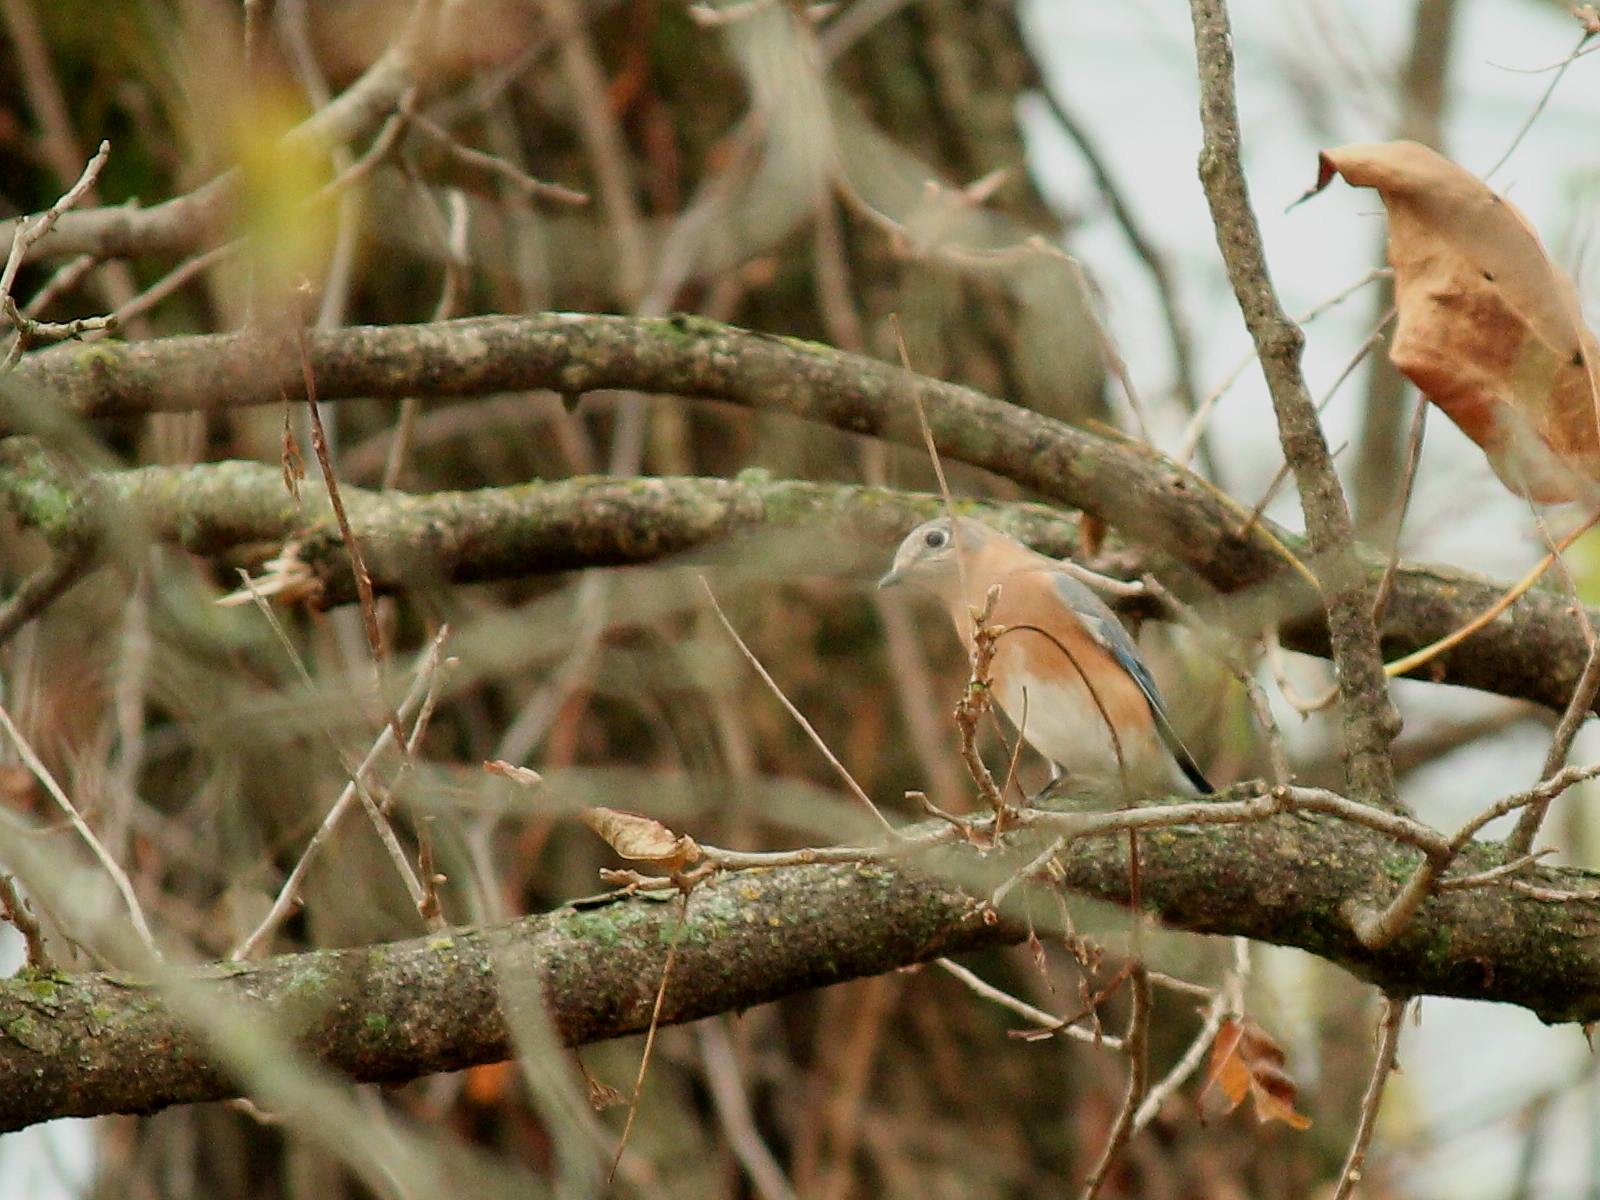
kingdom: Animalia
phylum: Chordata
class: Aves
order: Passeriformes
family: Turdidae
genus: Sialia
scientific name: Sialia sialis
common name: Eastern bluebird
